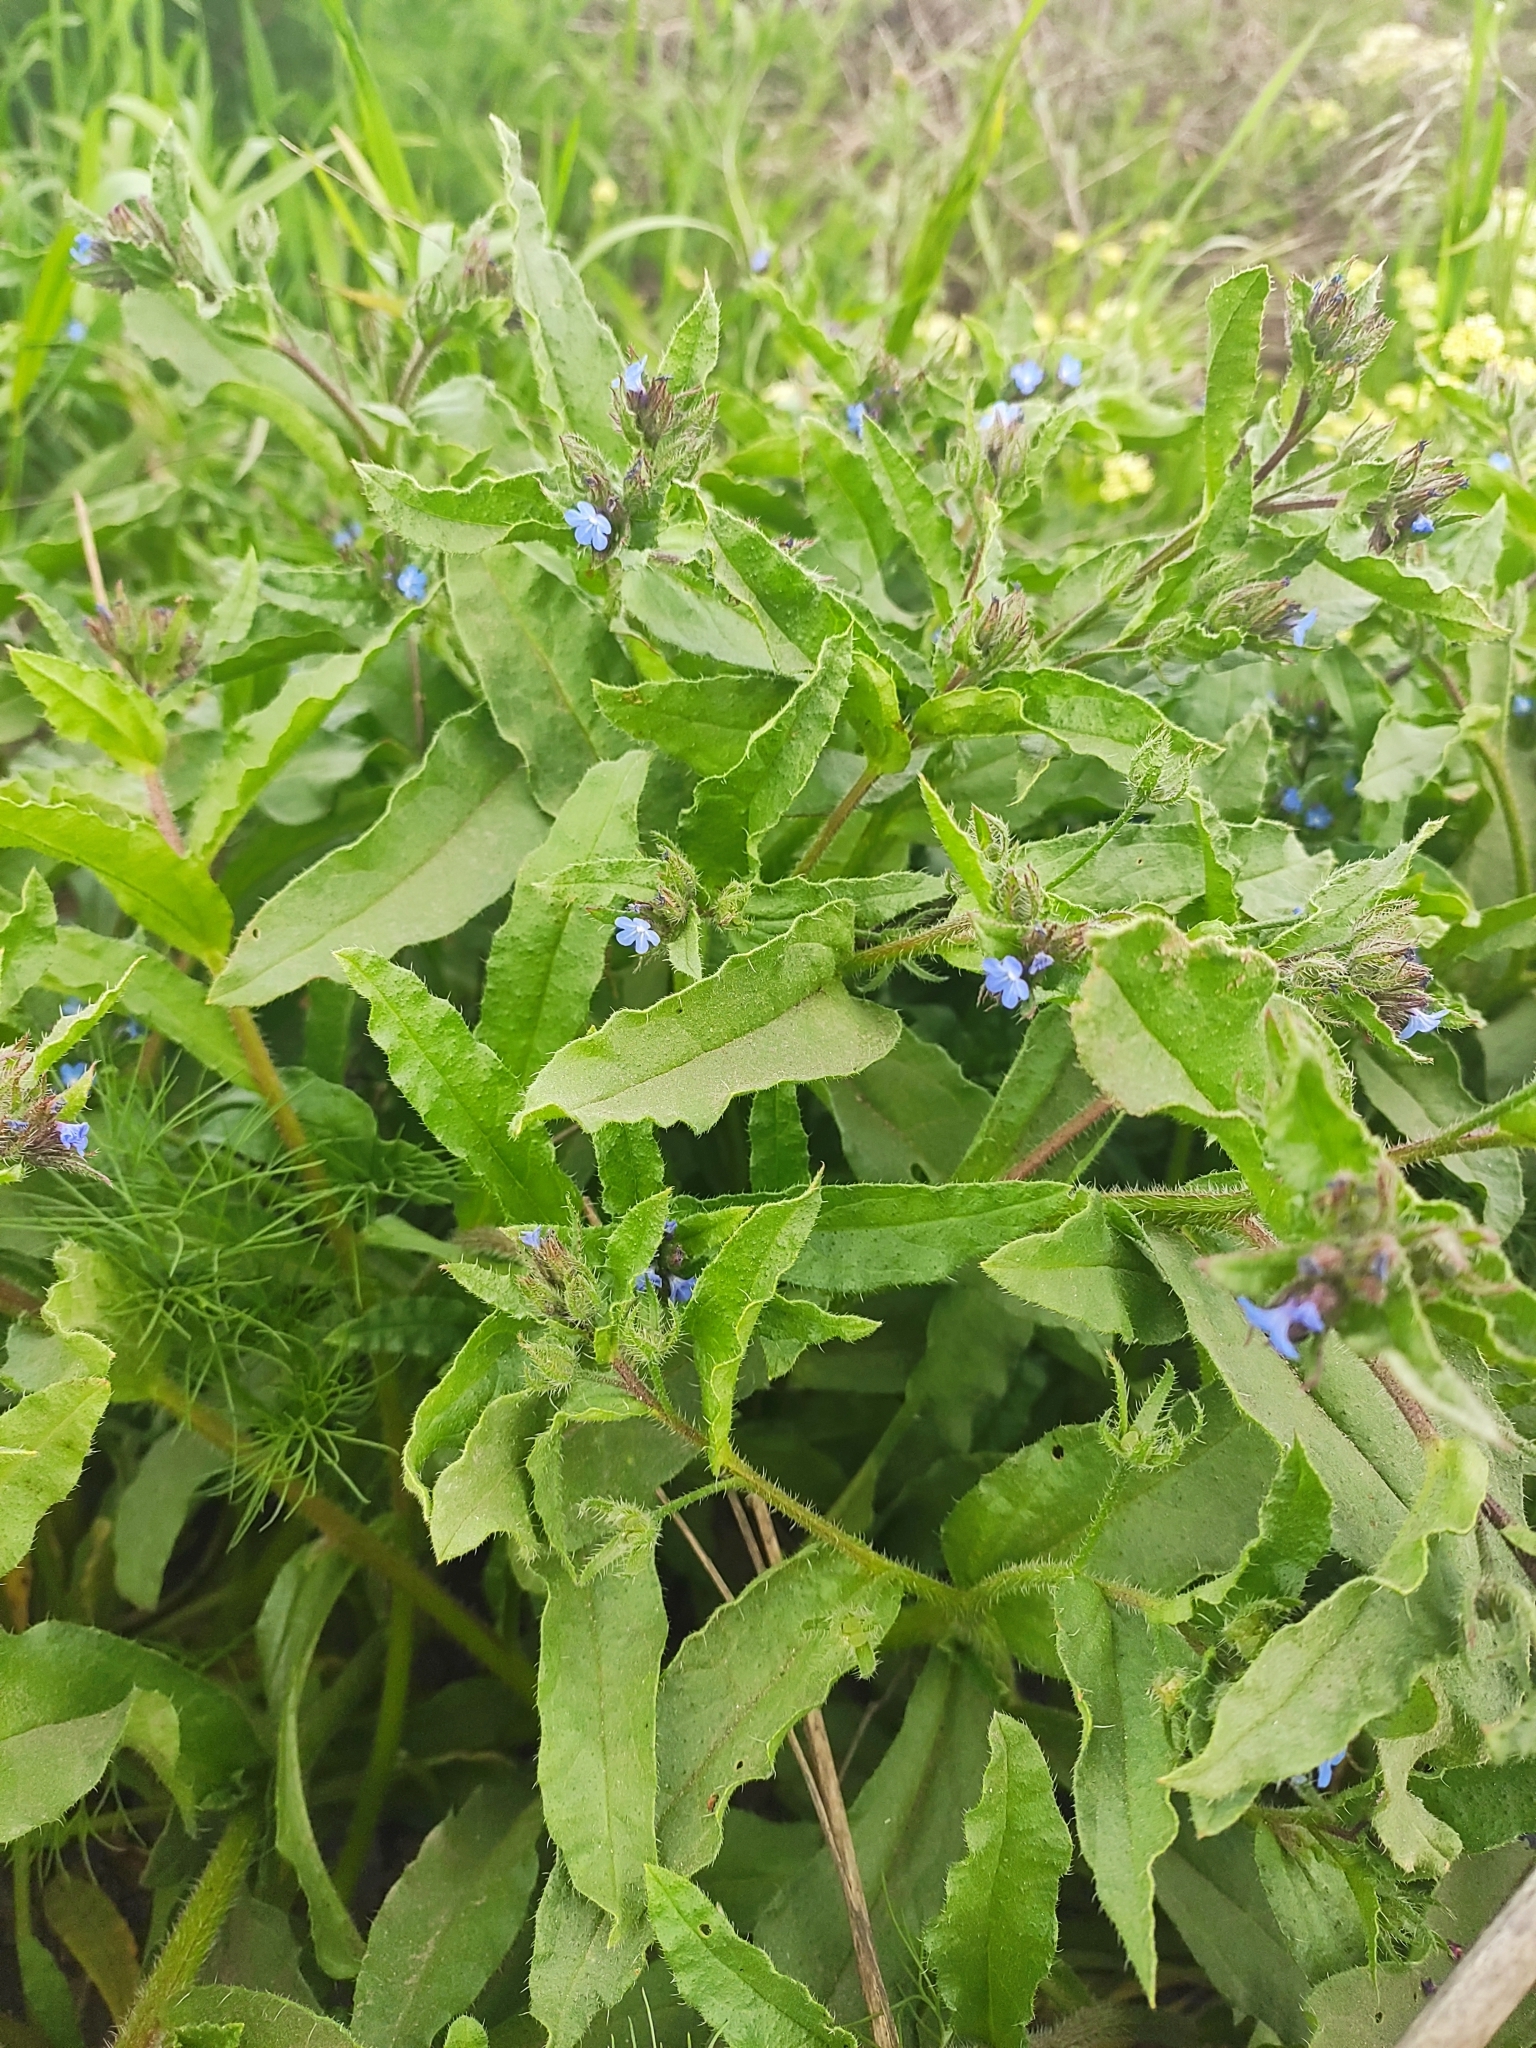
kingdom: Plantae
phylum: Tracheophyta
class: Magnoliopsida
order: Boraginales
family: Boraginaceae
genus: Lycopsis
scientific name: Lycopsis arvensis
